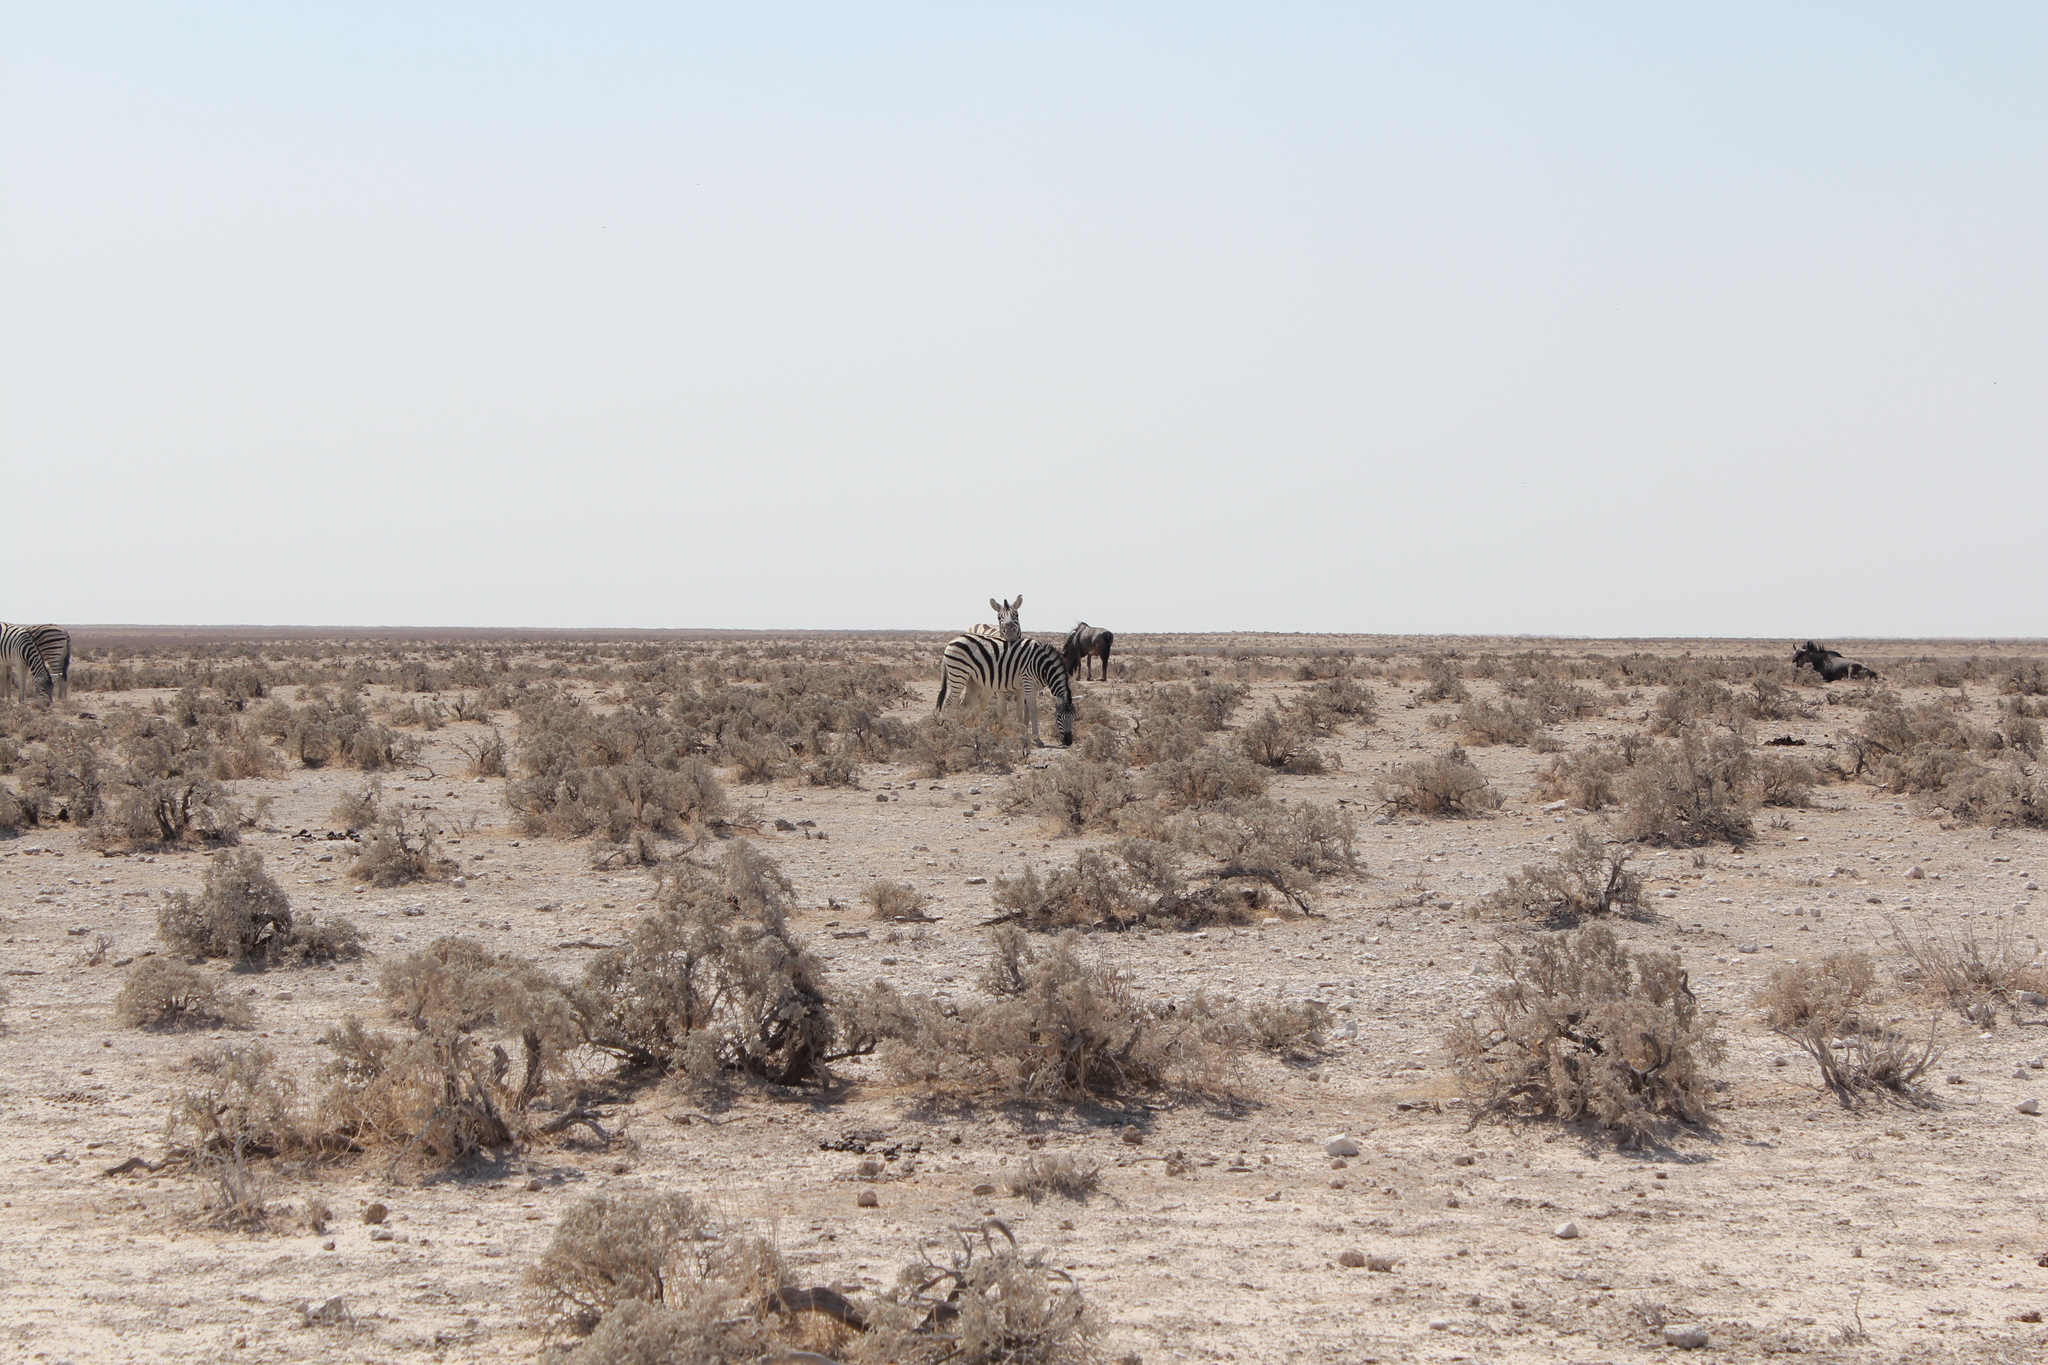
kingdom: Animalia
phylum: Chordata
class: Mammalia
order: Perissodactyla
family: Equidae
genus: Equus
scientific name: Equus quagga
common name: Plains zebra
